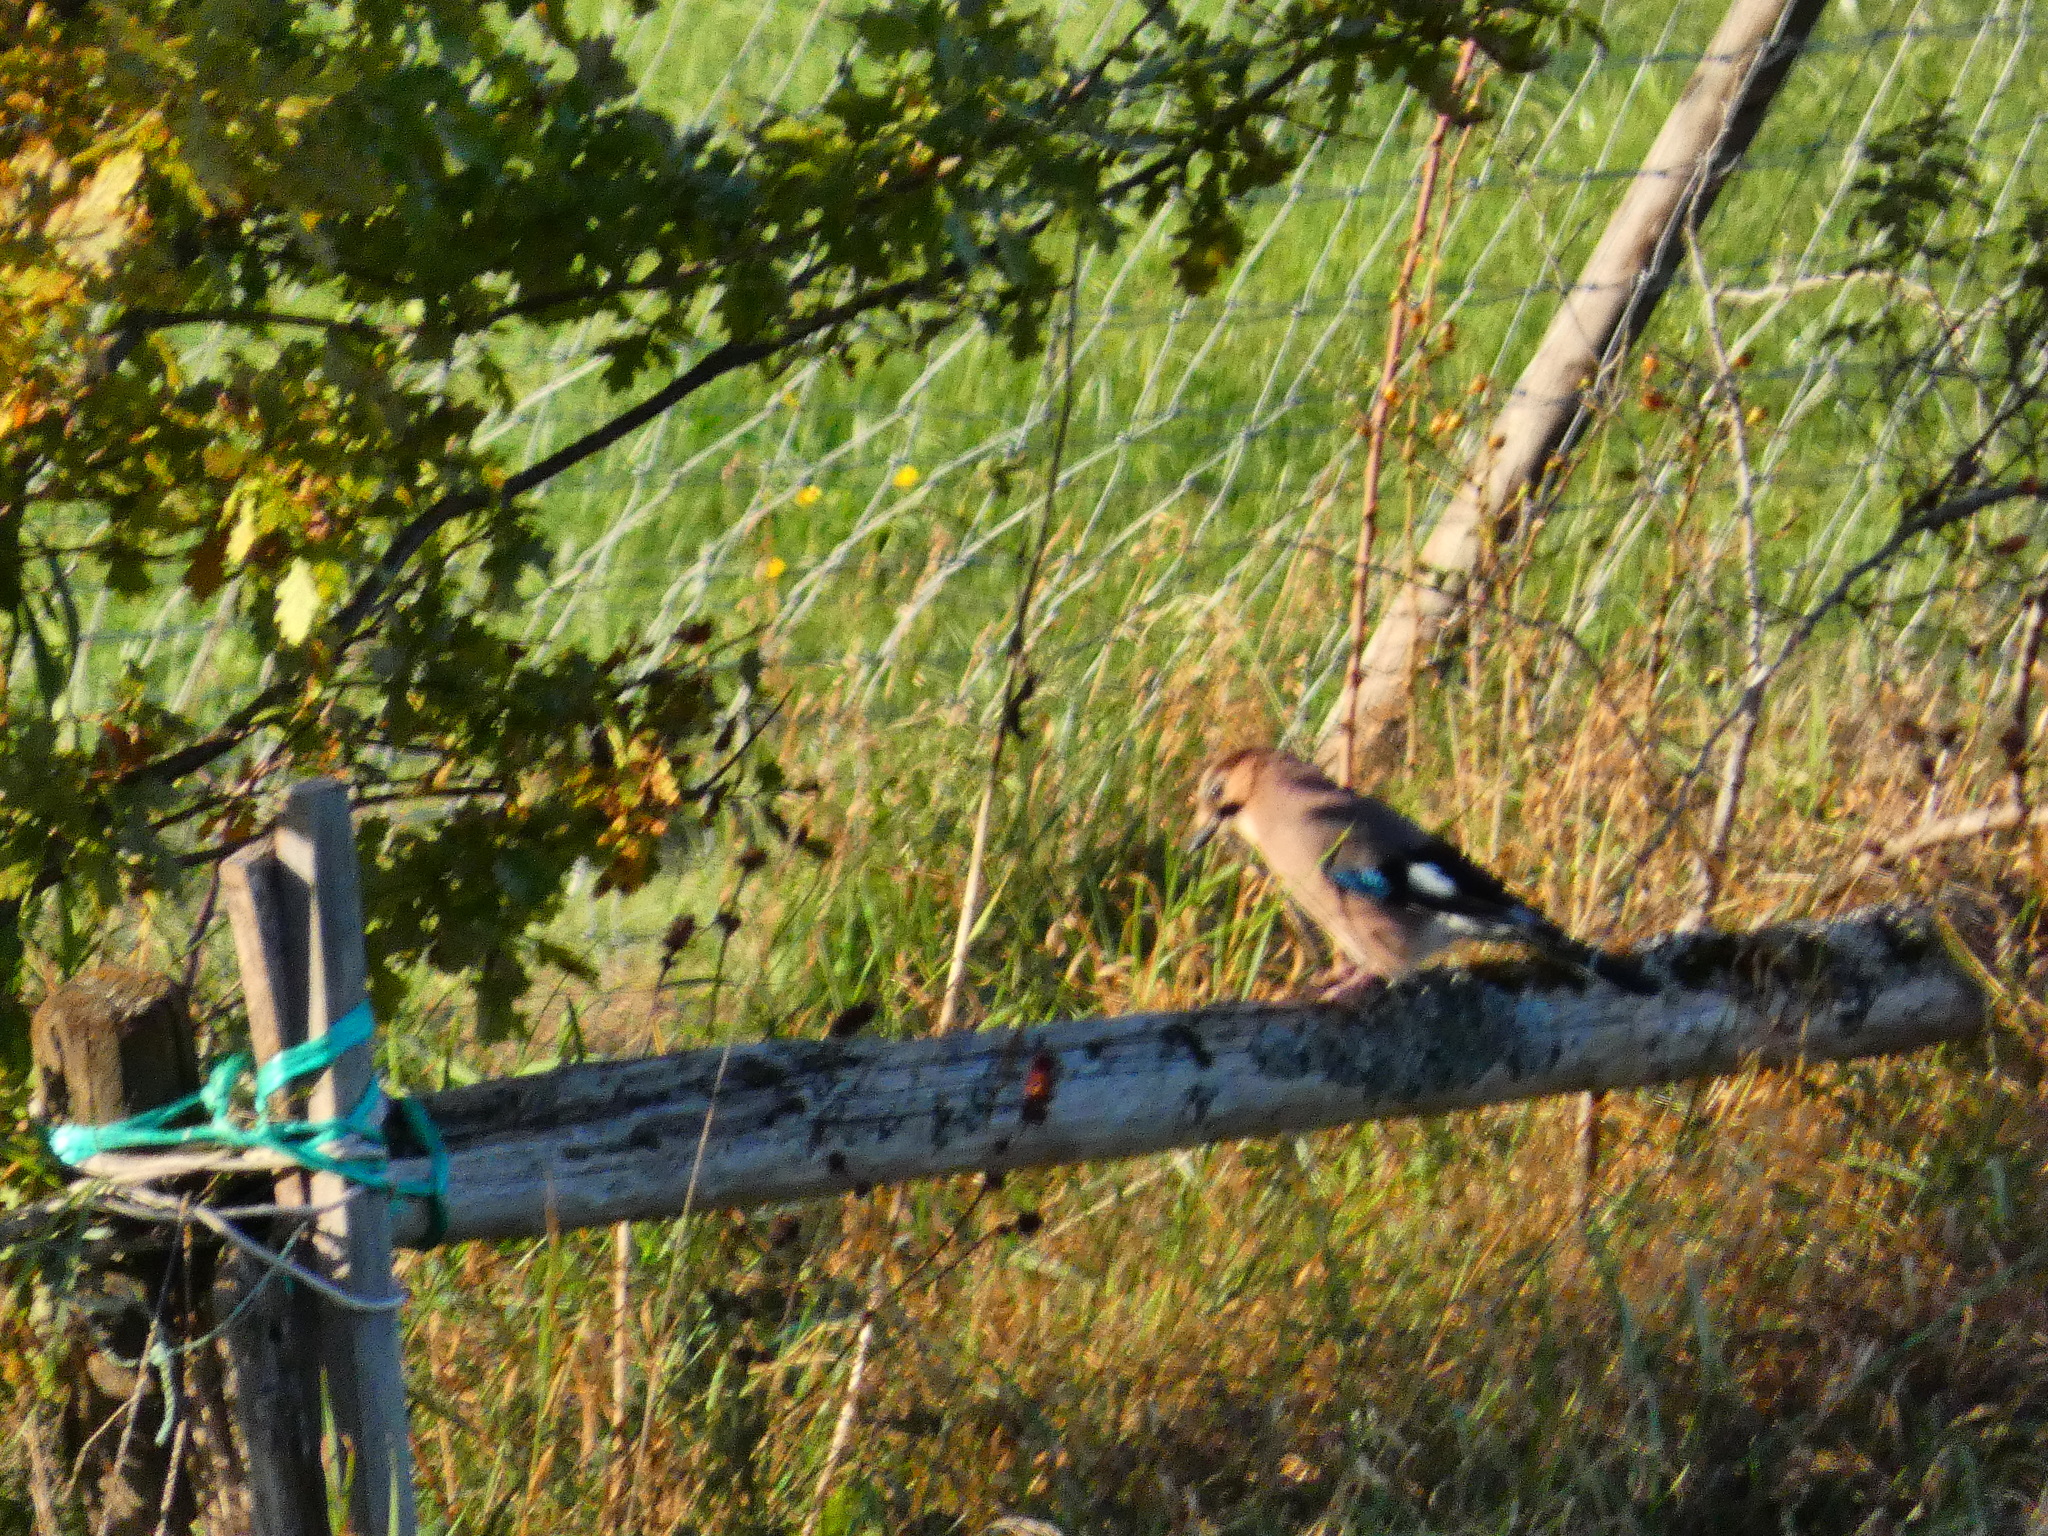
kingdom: Animalia
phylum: Chordata
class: Aves
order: Passeriformes
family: Corvidae
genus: Garrulus
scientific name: Garrulus glandarius
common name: Eurasian jay
